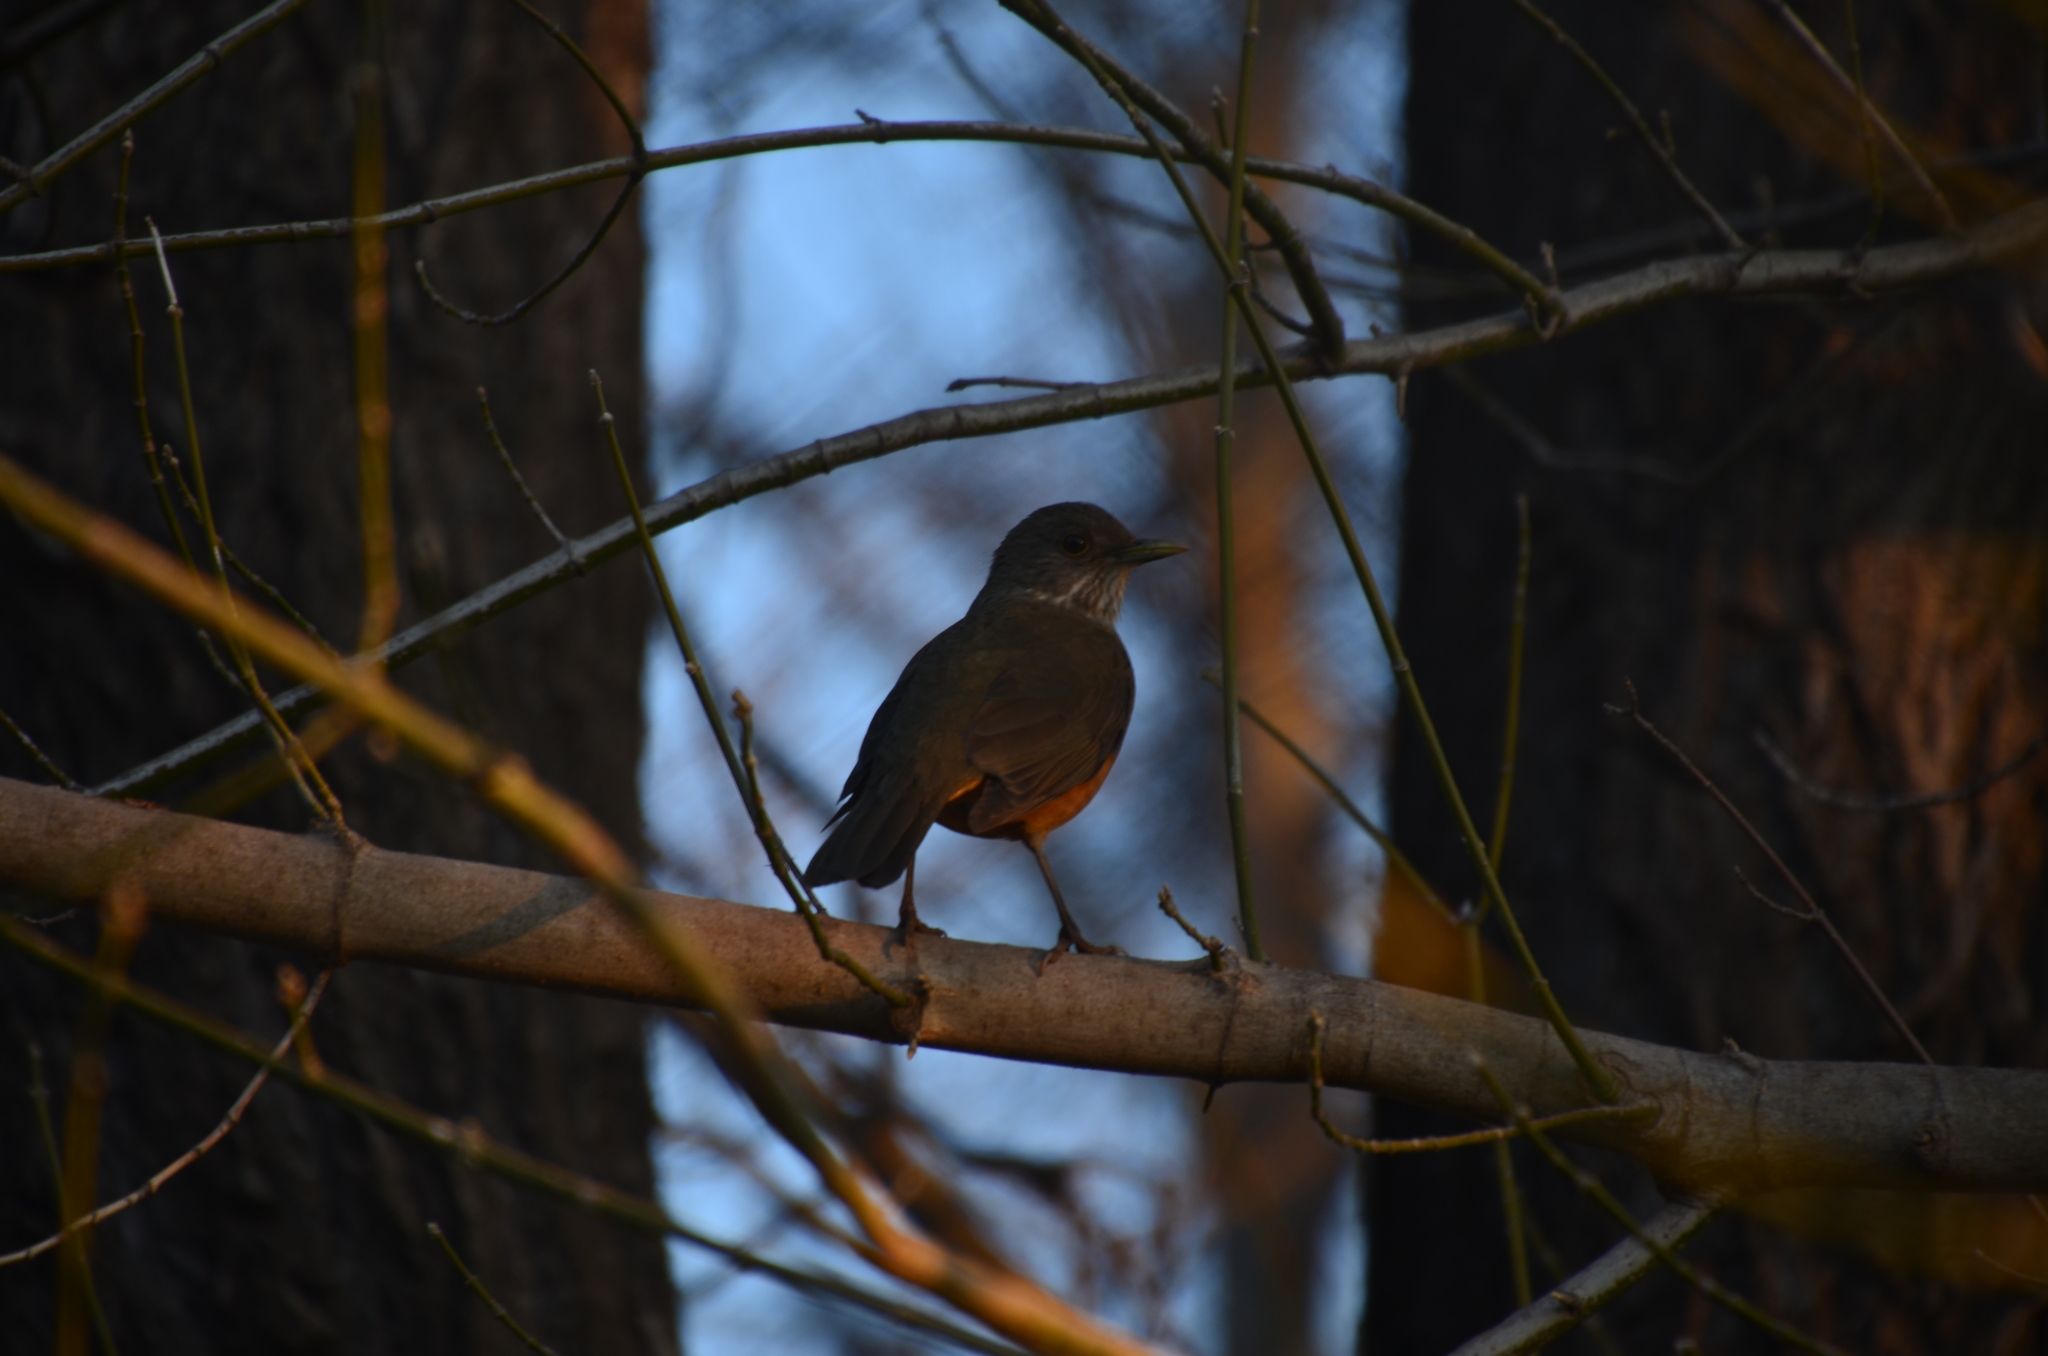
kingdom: Animalia
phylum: Chordata
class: Aves
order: Passeriformes
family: Turdidae
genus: Turdus
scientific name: Turdus rufiventris
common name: Rufous-bellied thrush
